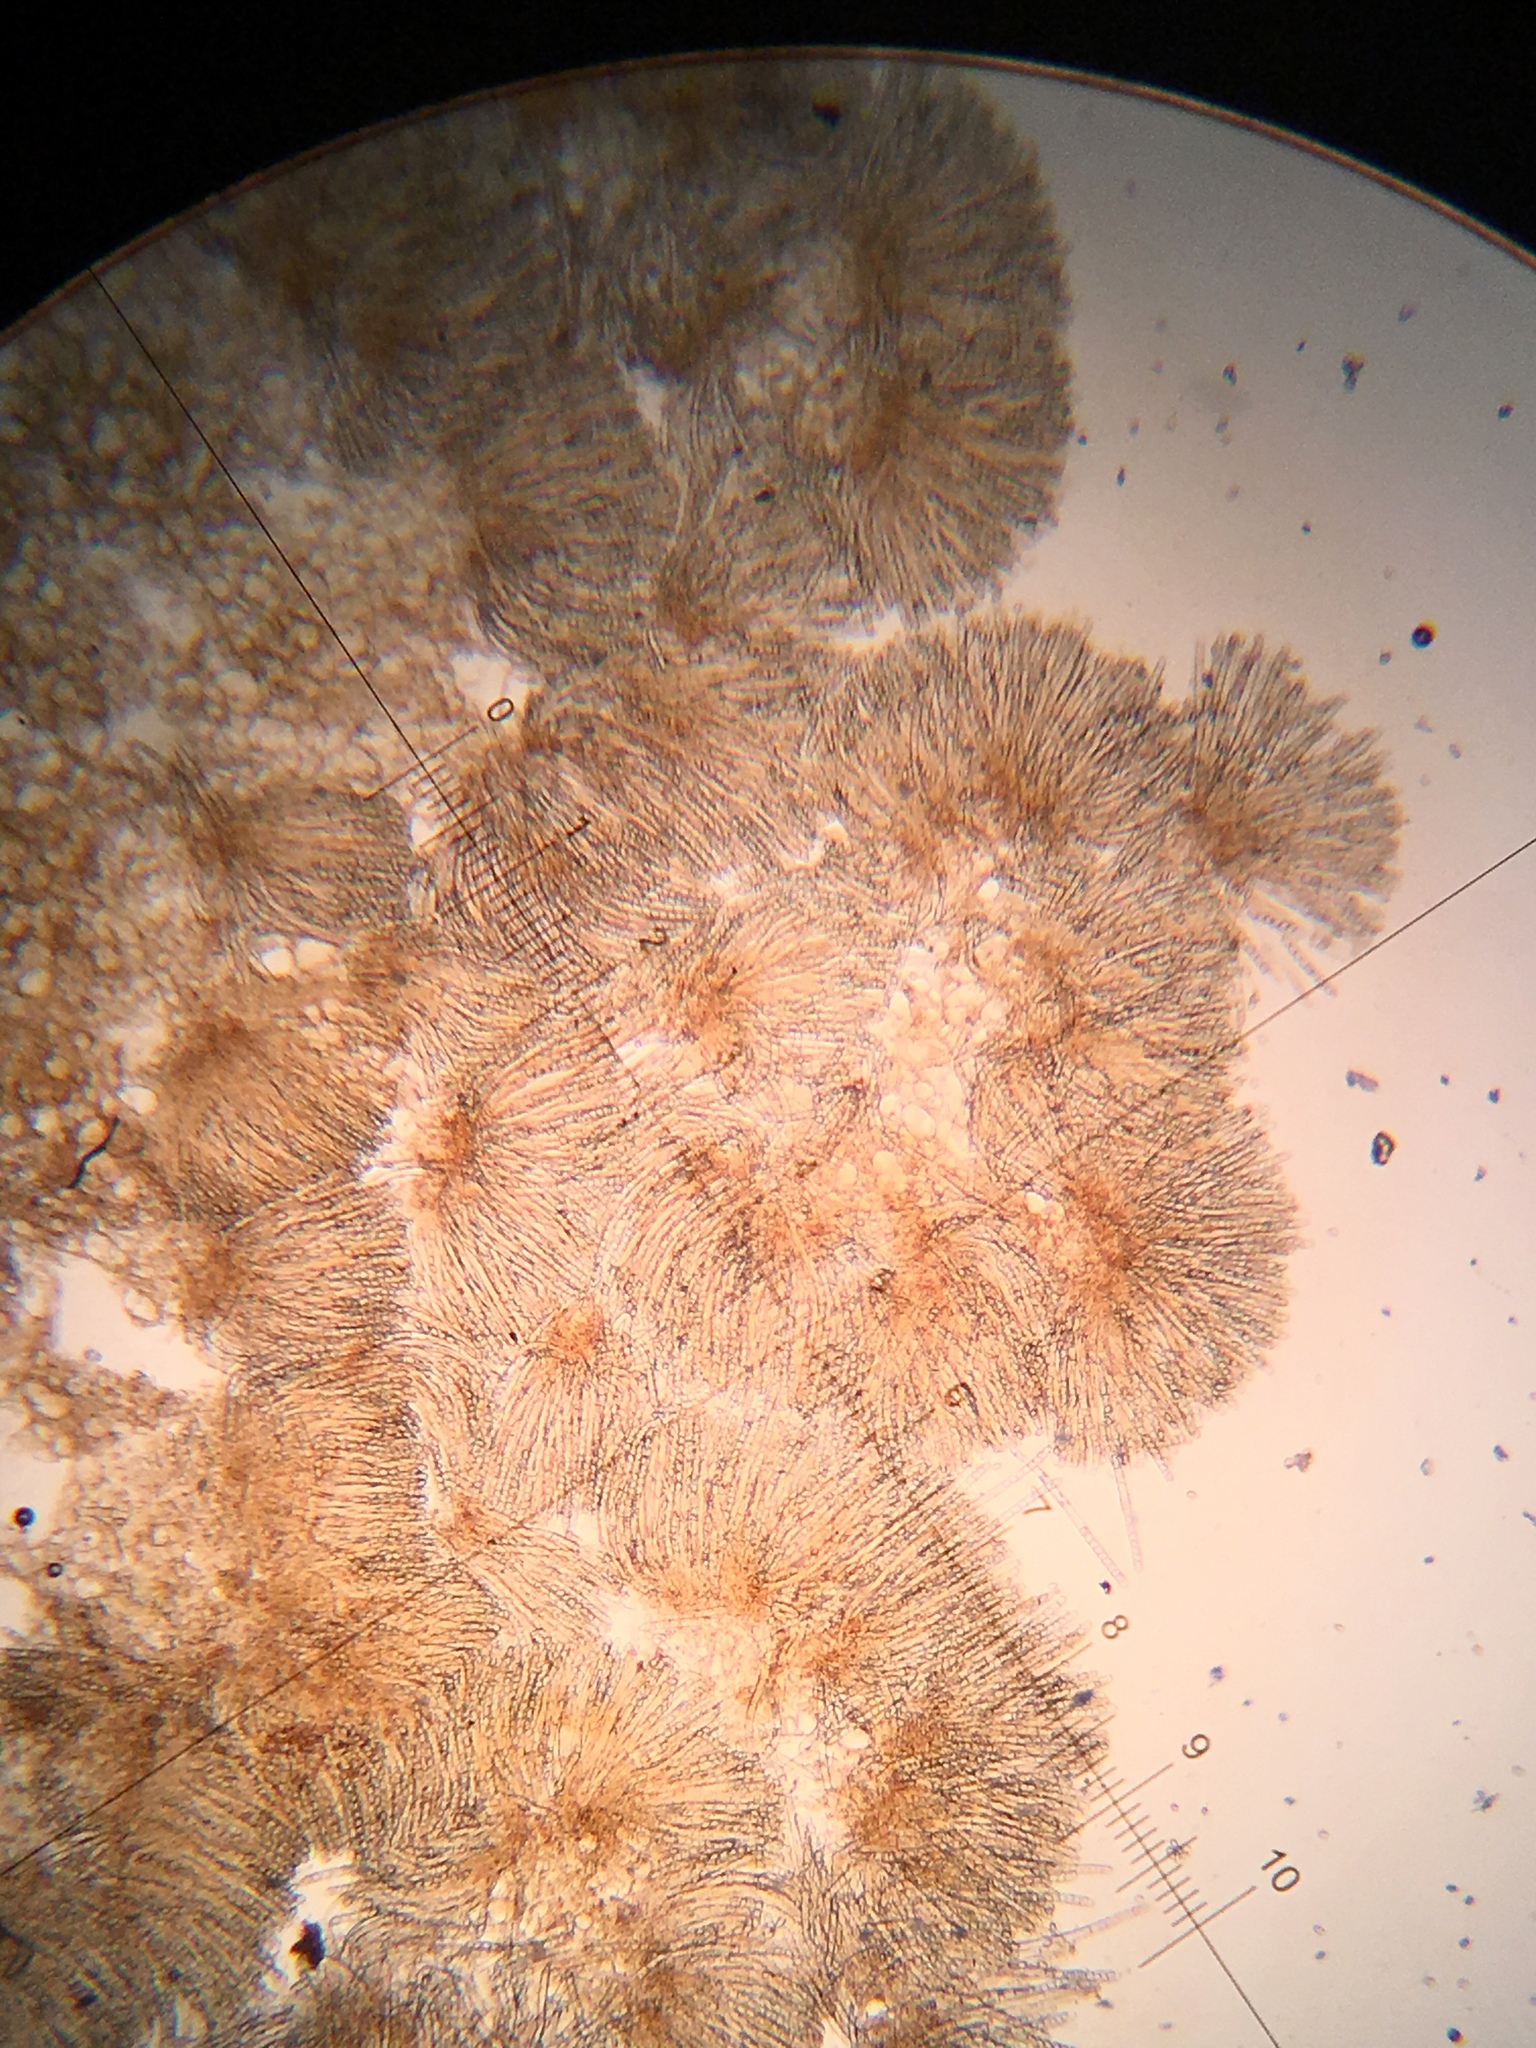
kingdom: Fungi
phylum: Ascomycota
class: Pezizomycetes
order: Pezizales
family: Pezizaceae
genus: Peziza
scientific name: Peziza vesiculosa
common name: Blistered cup
